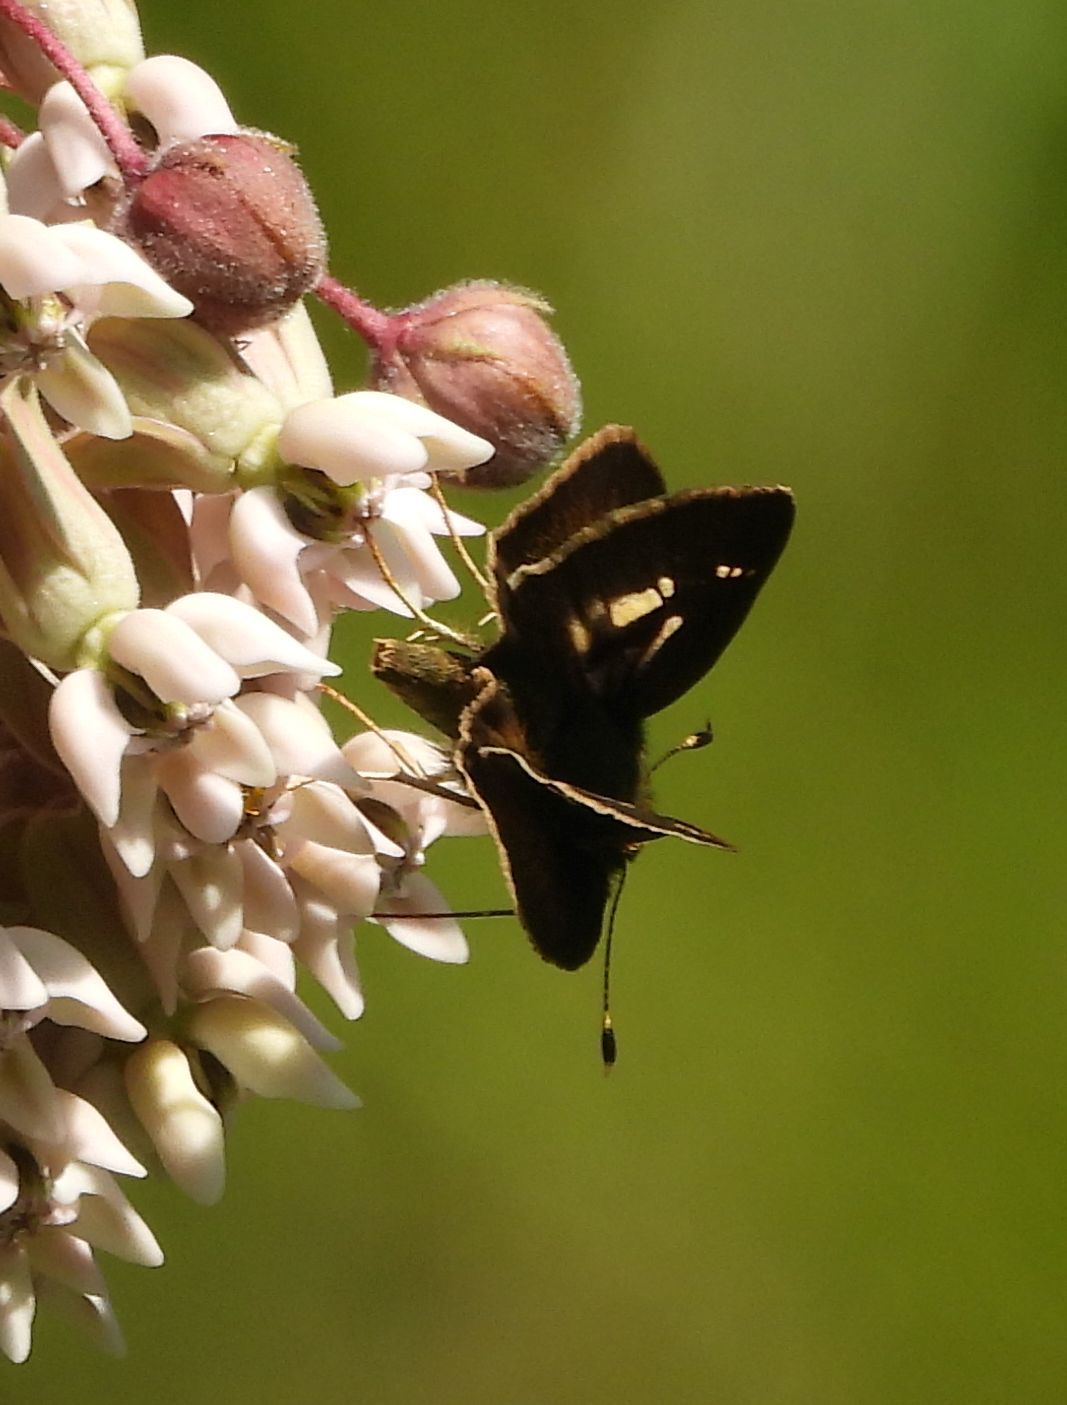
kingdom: Animalia
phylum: Arthropoda
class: Insecta
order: Lepidoptera
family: Hesperiidae
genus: Vernia
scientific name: Vernia verna
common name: Little glassywing
